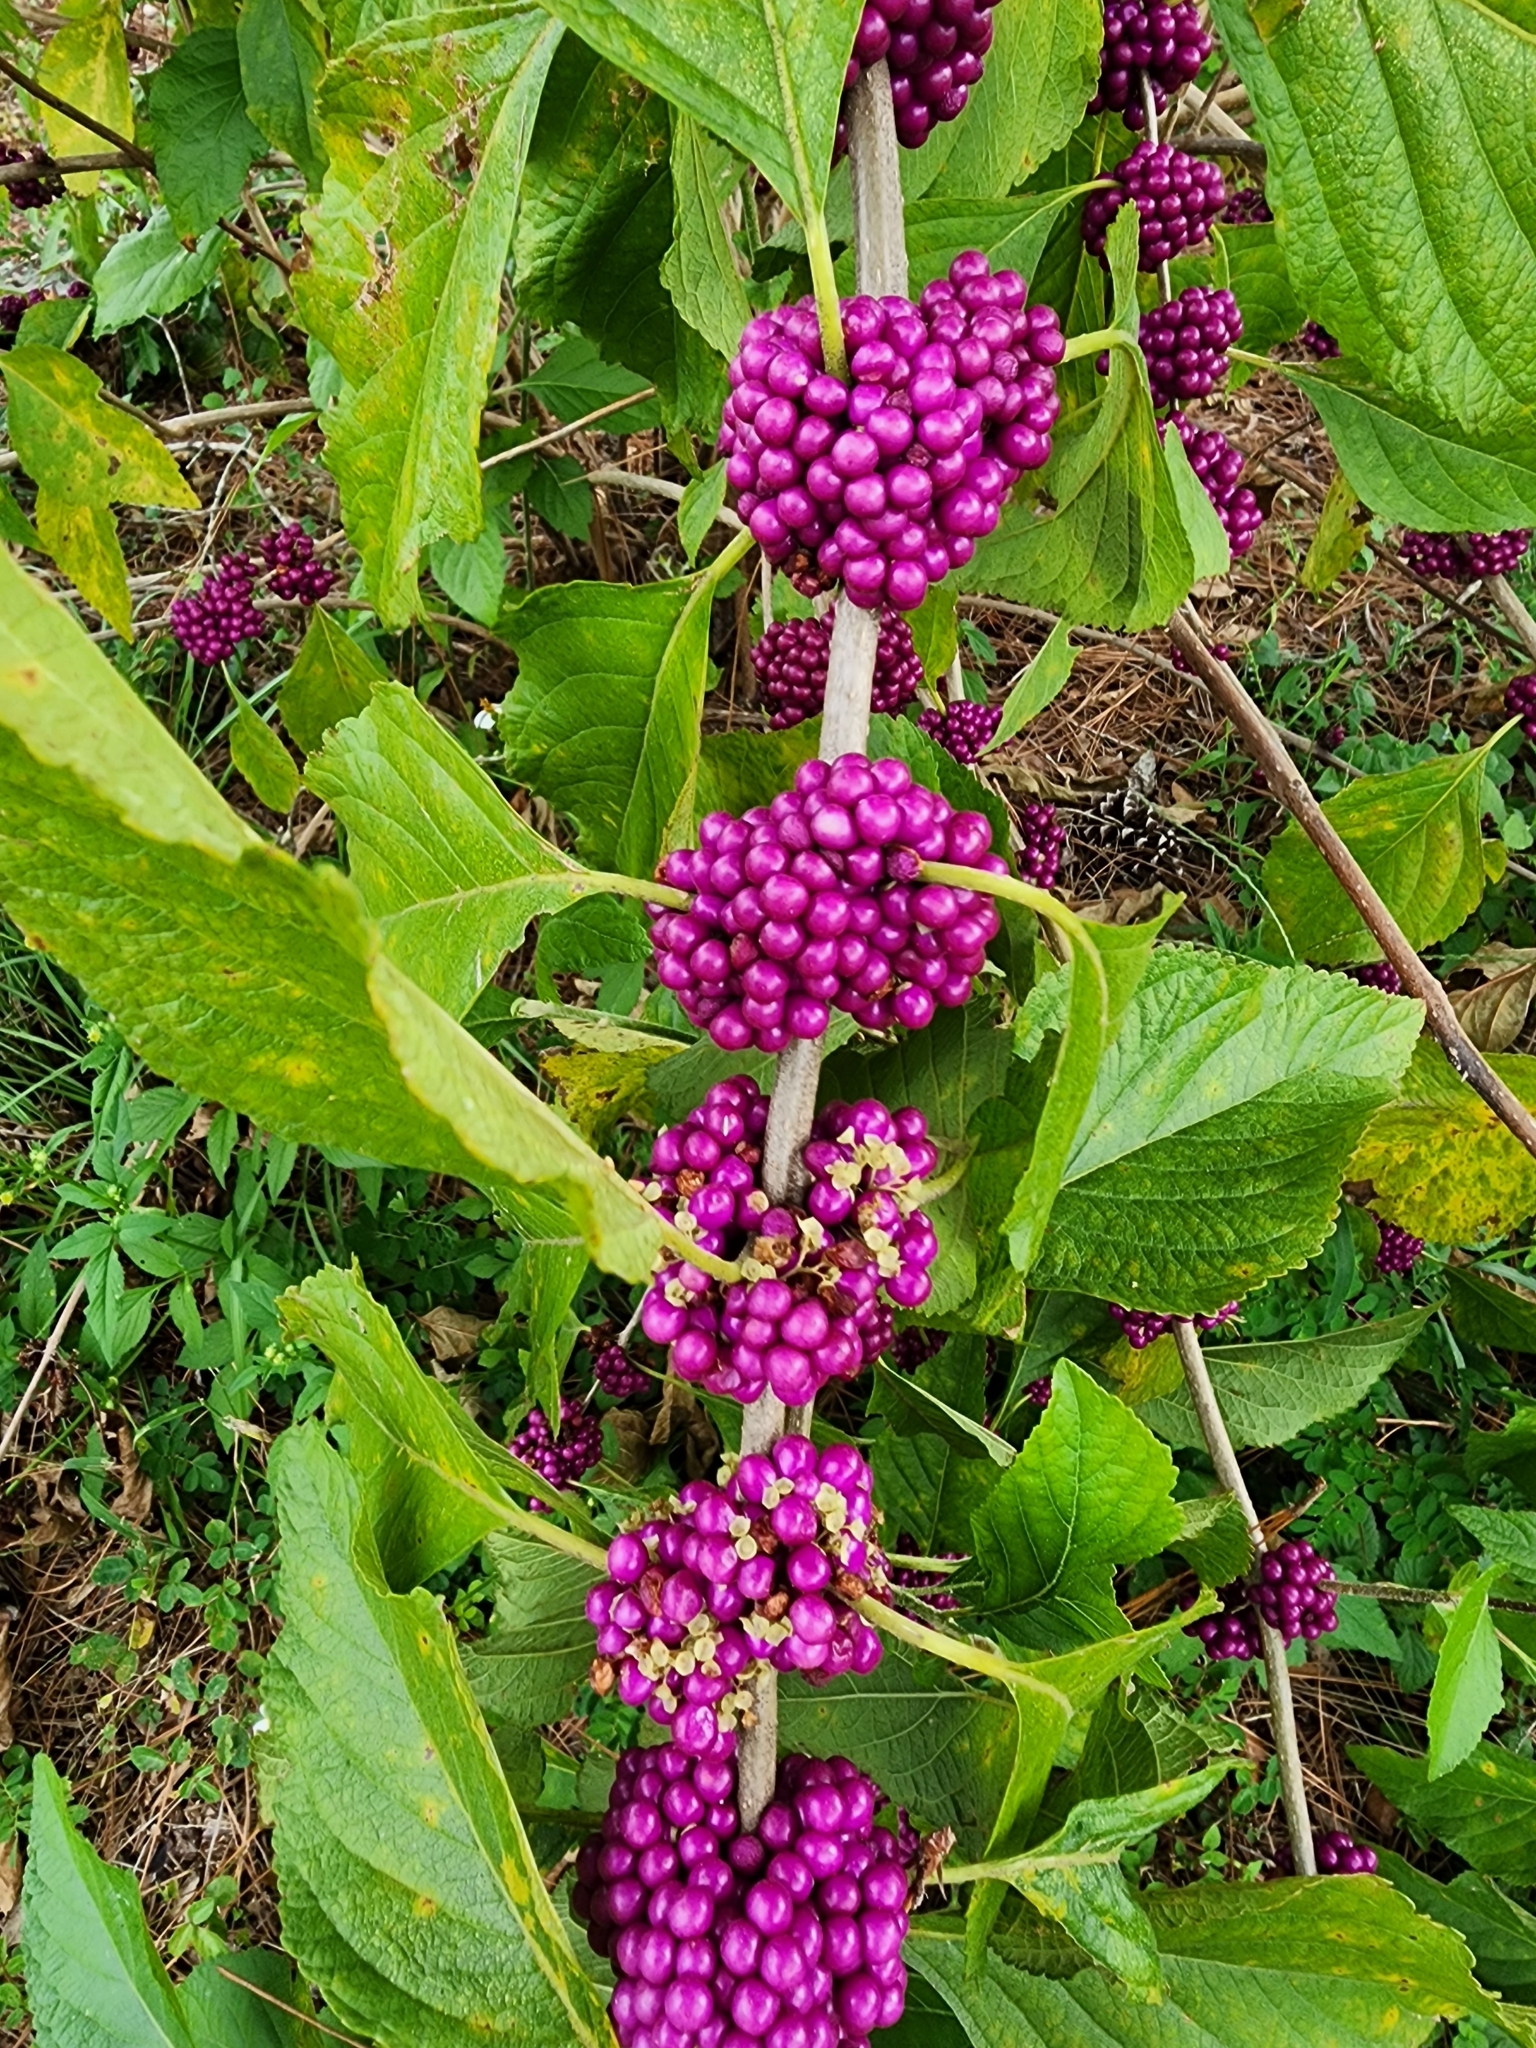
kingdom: Plantae
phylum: Tracheophyta
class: Magnoliopsida
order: Lamiales
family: Lamiaceae
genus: Callicarpa
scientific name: Callicarpa americana
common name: American beautyberry
